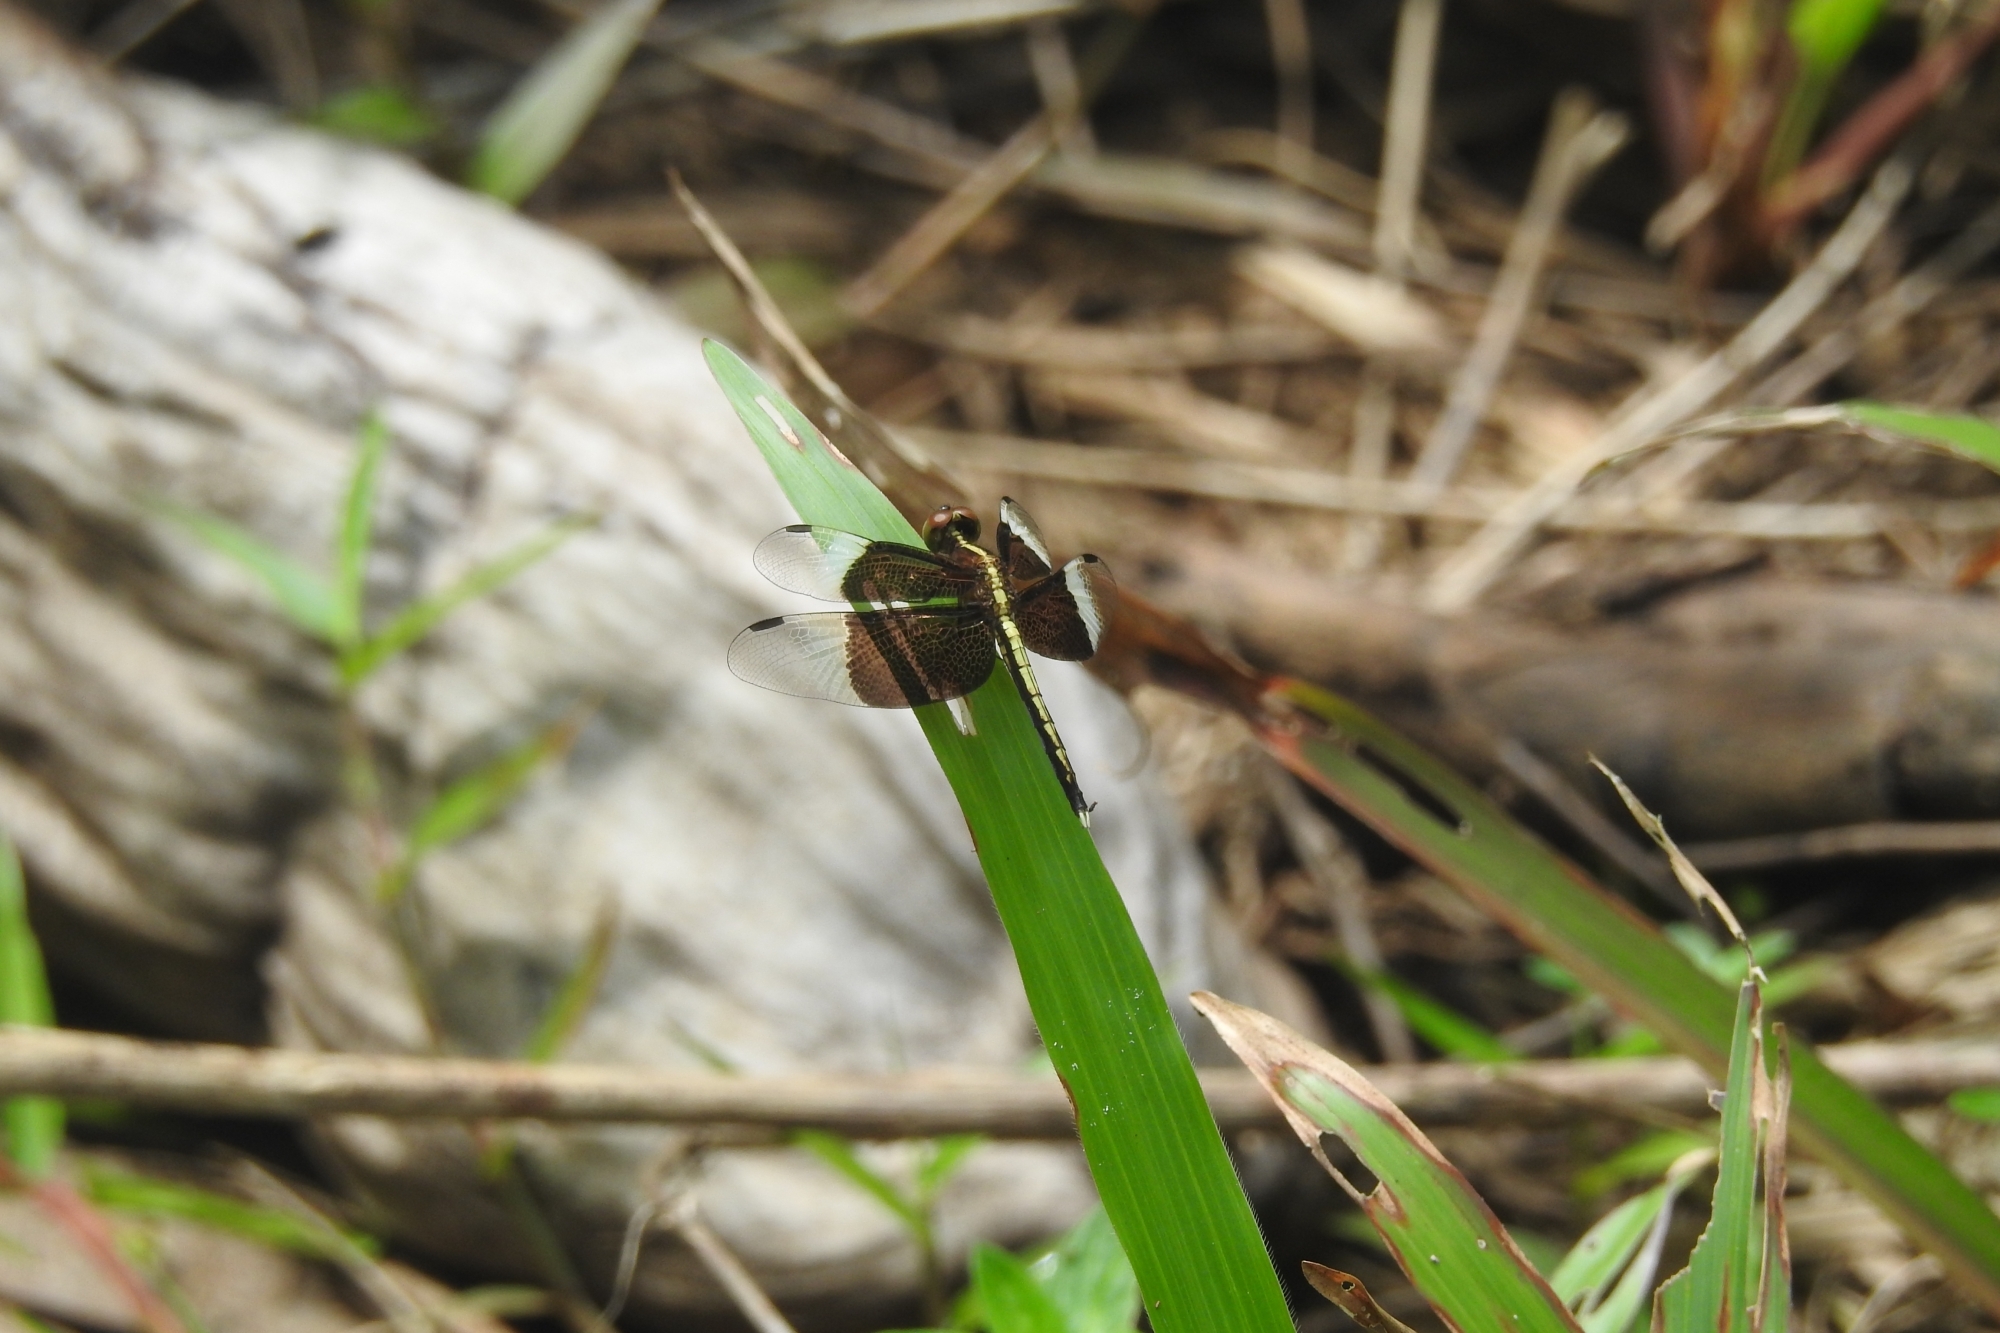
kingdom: Animalia
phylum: Arthropoda
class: Insecta
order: Odonata
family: Libellulidae
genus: Neurothemis
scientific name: Neurothemis tullia
